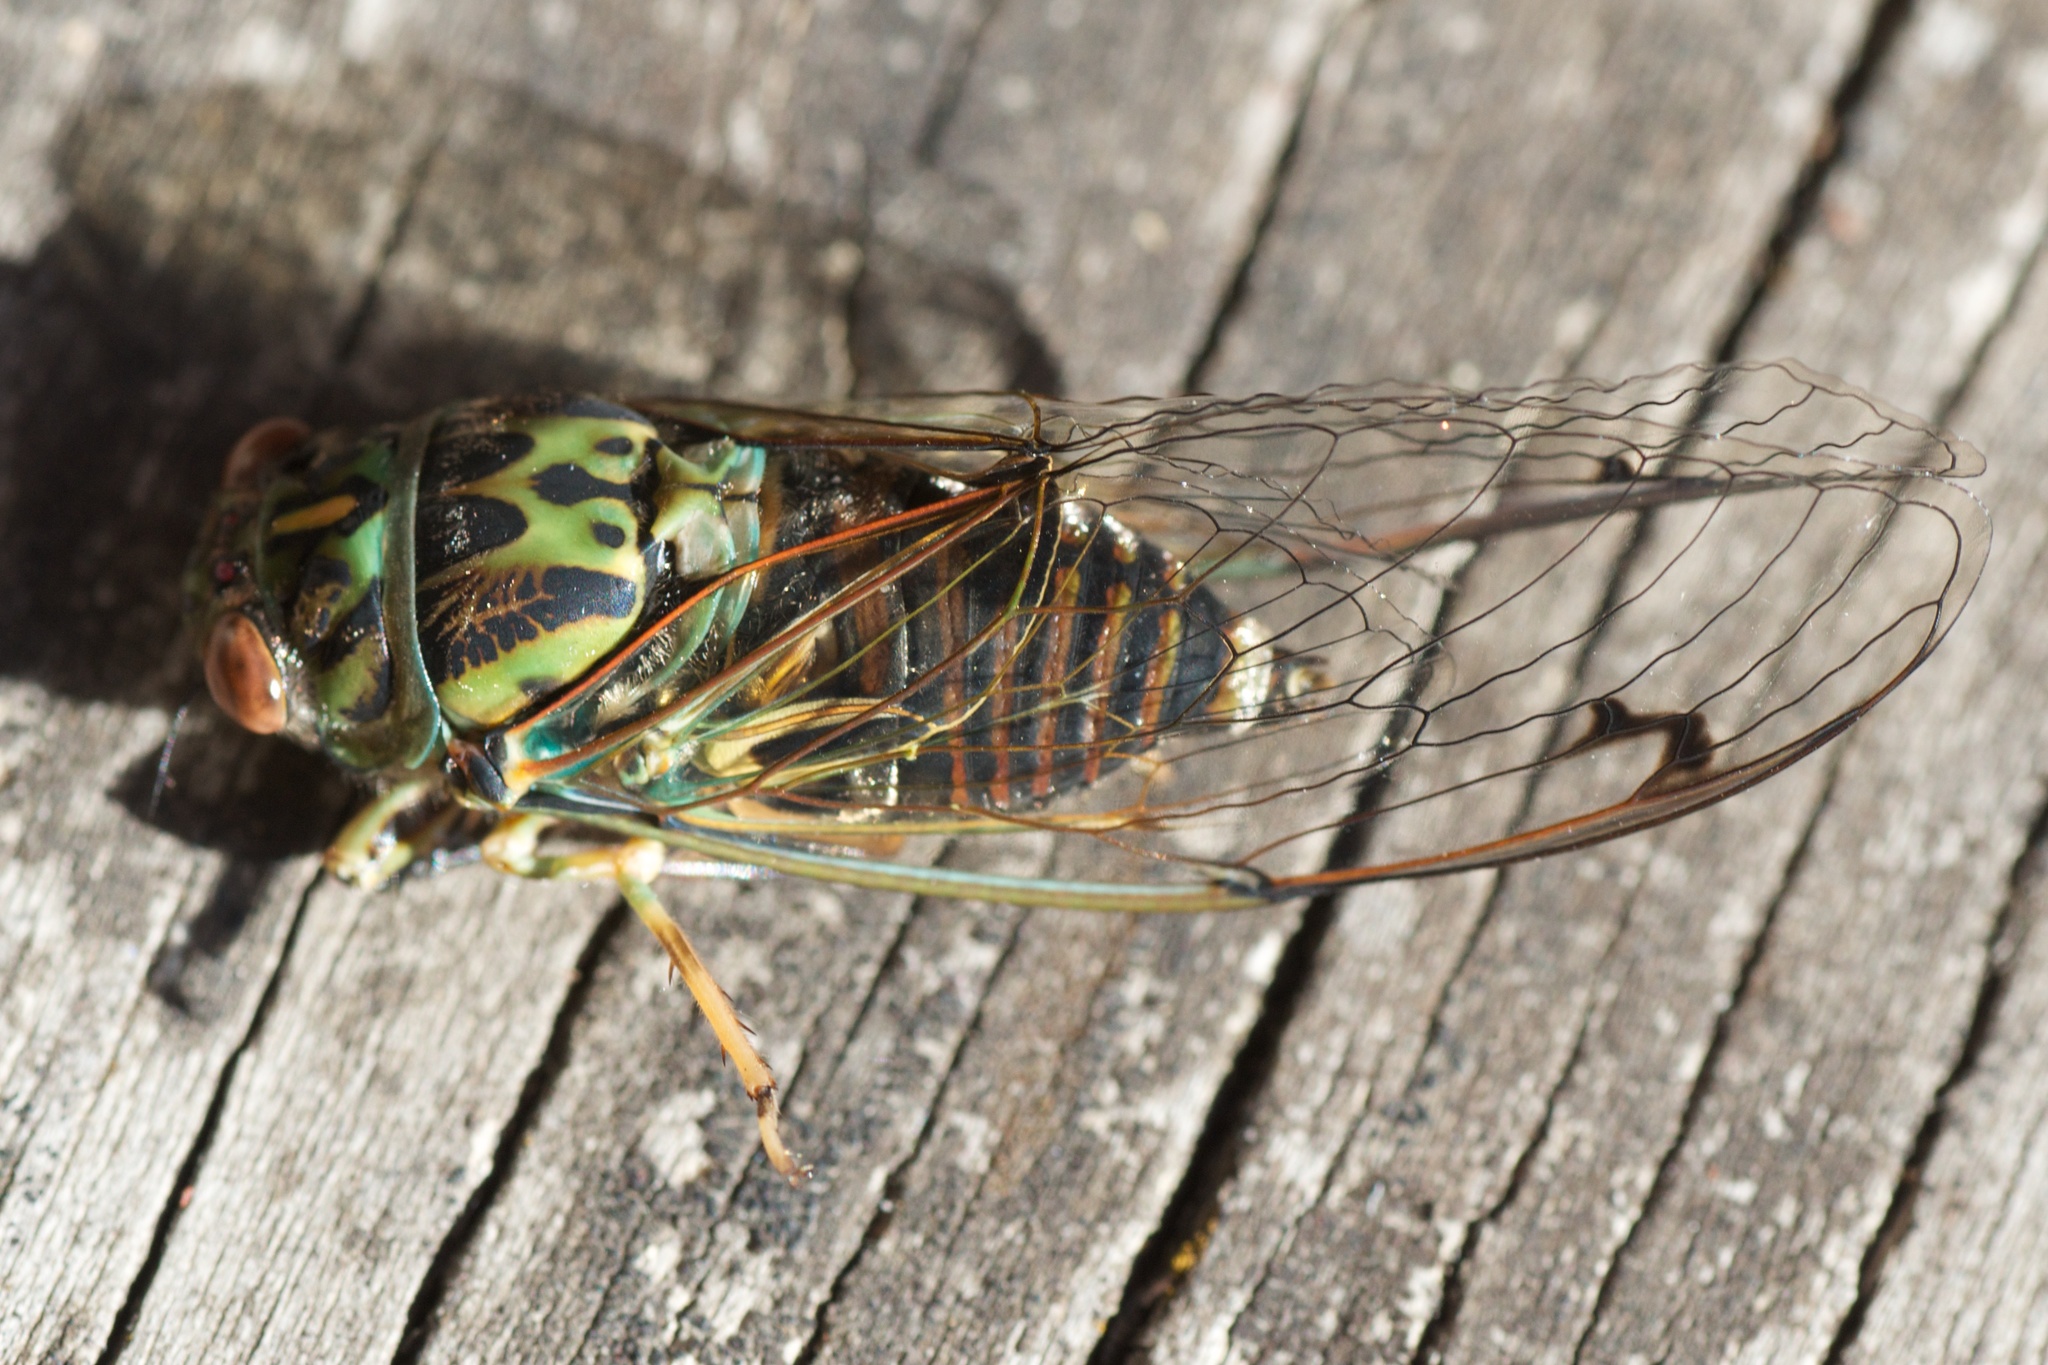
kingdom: Animalia
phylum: Arthropoda
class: Insecta
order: Hemiptera
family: Cicadidae
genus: Amphipsalta
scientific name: Amphipsalta zelandica
